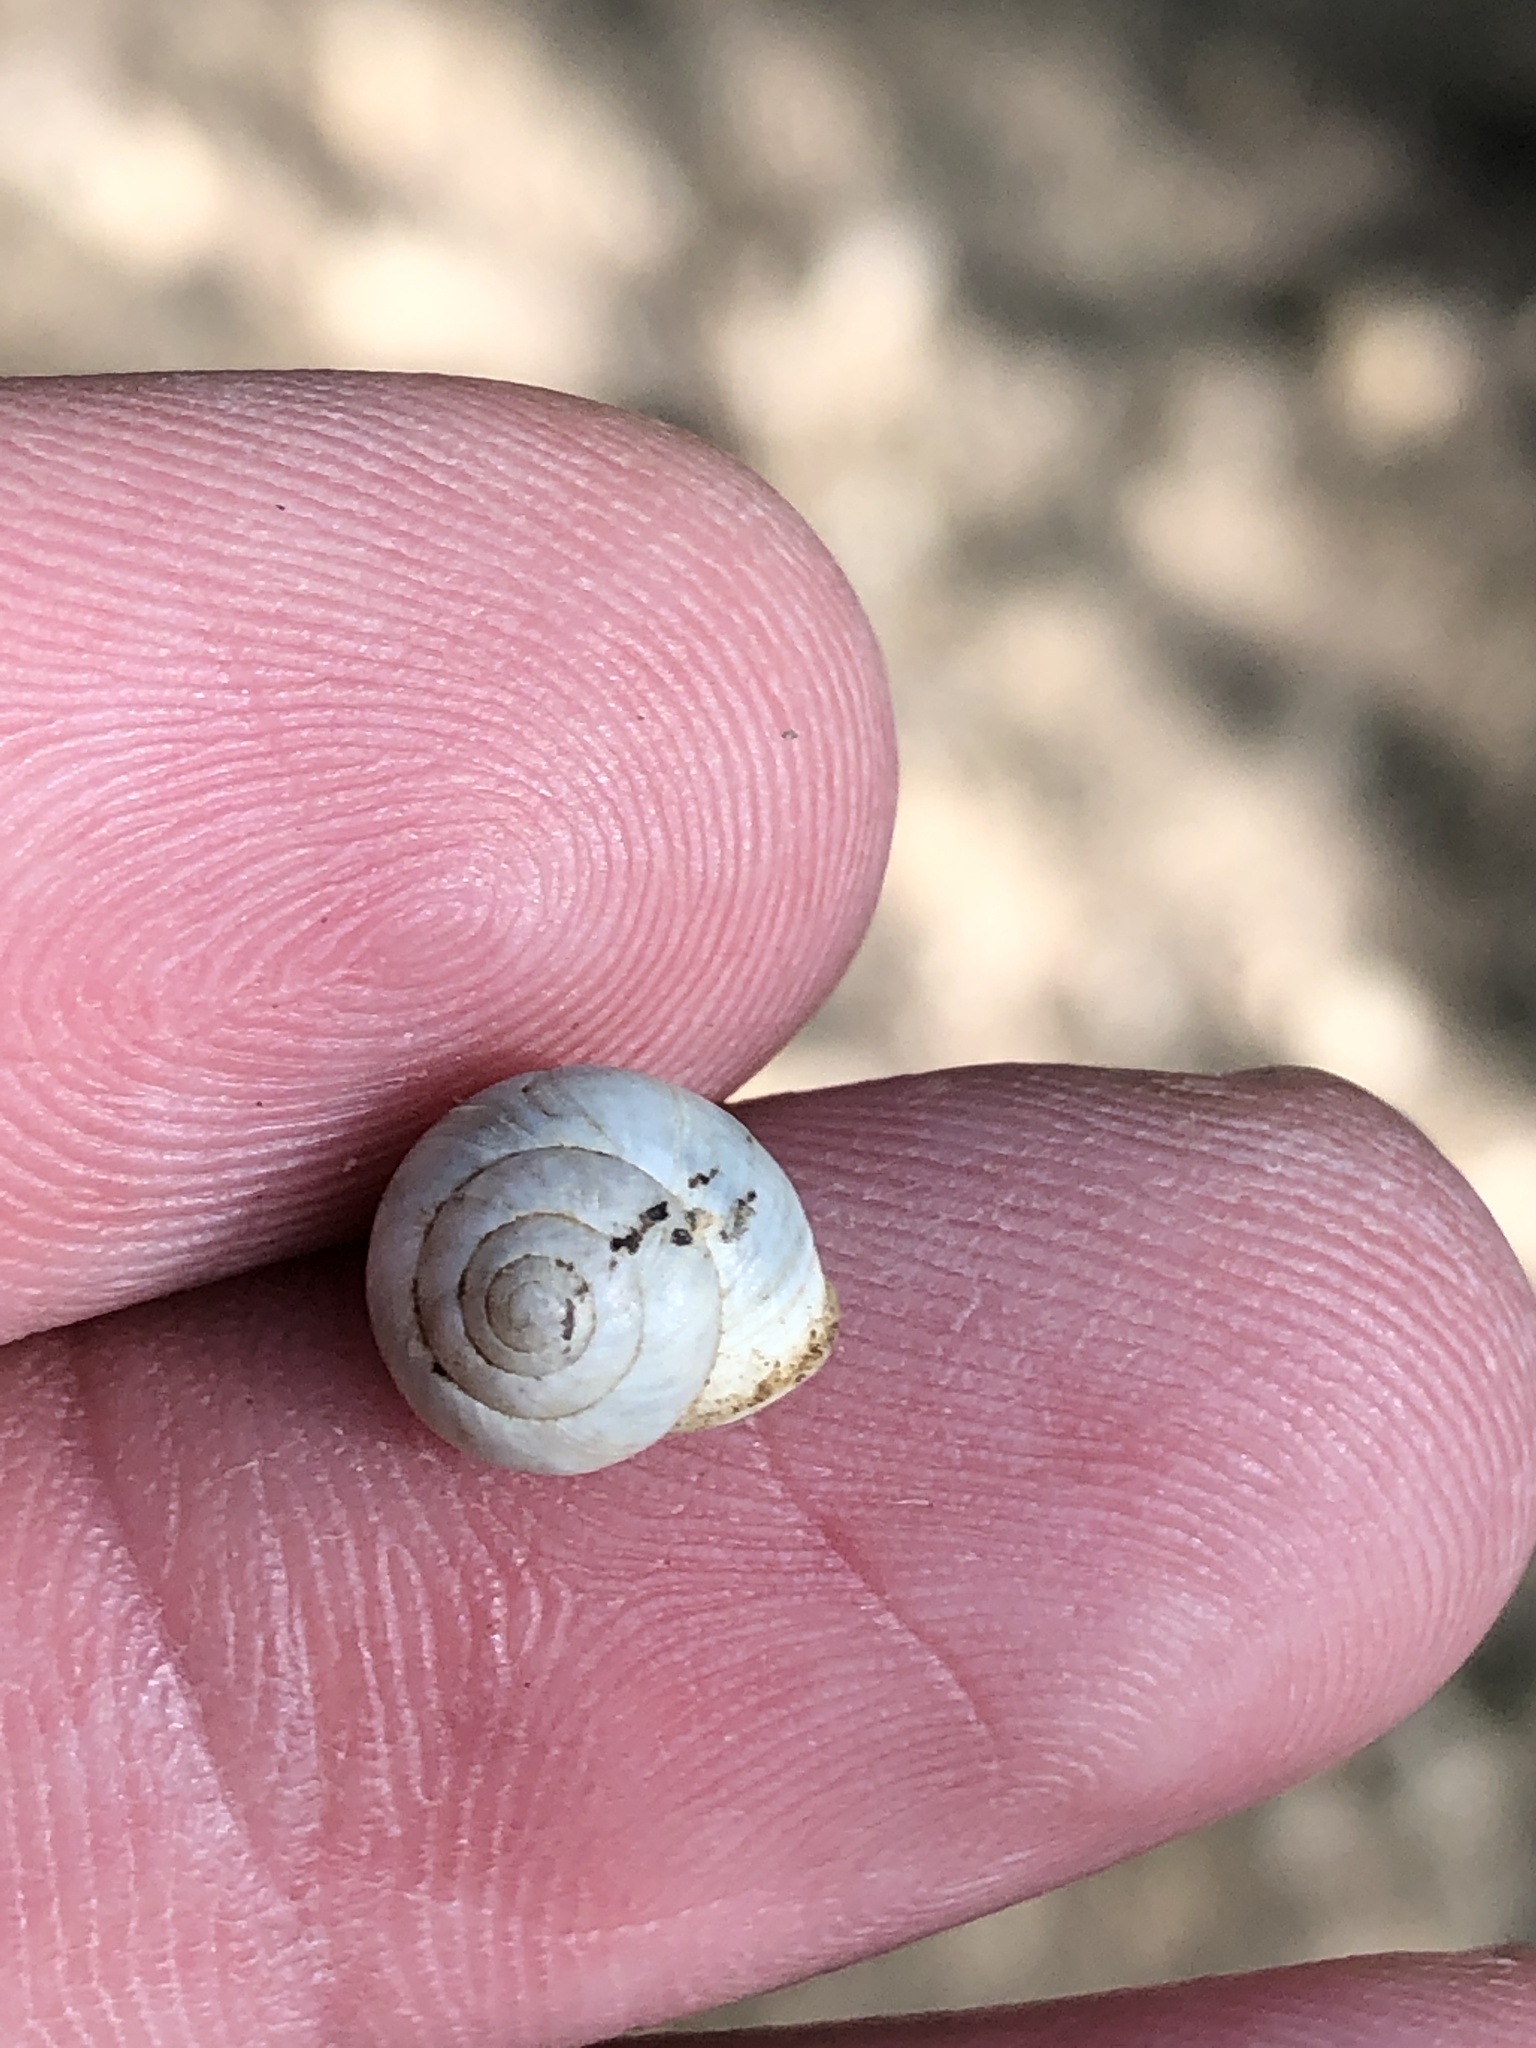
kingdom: Animalia
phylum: Mollusca
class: Gastropoda
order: Cycloneritida
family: Helicinidae
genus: Helicina
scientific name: Helicina orbiculata
